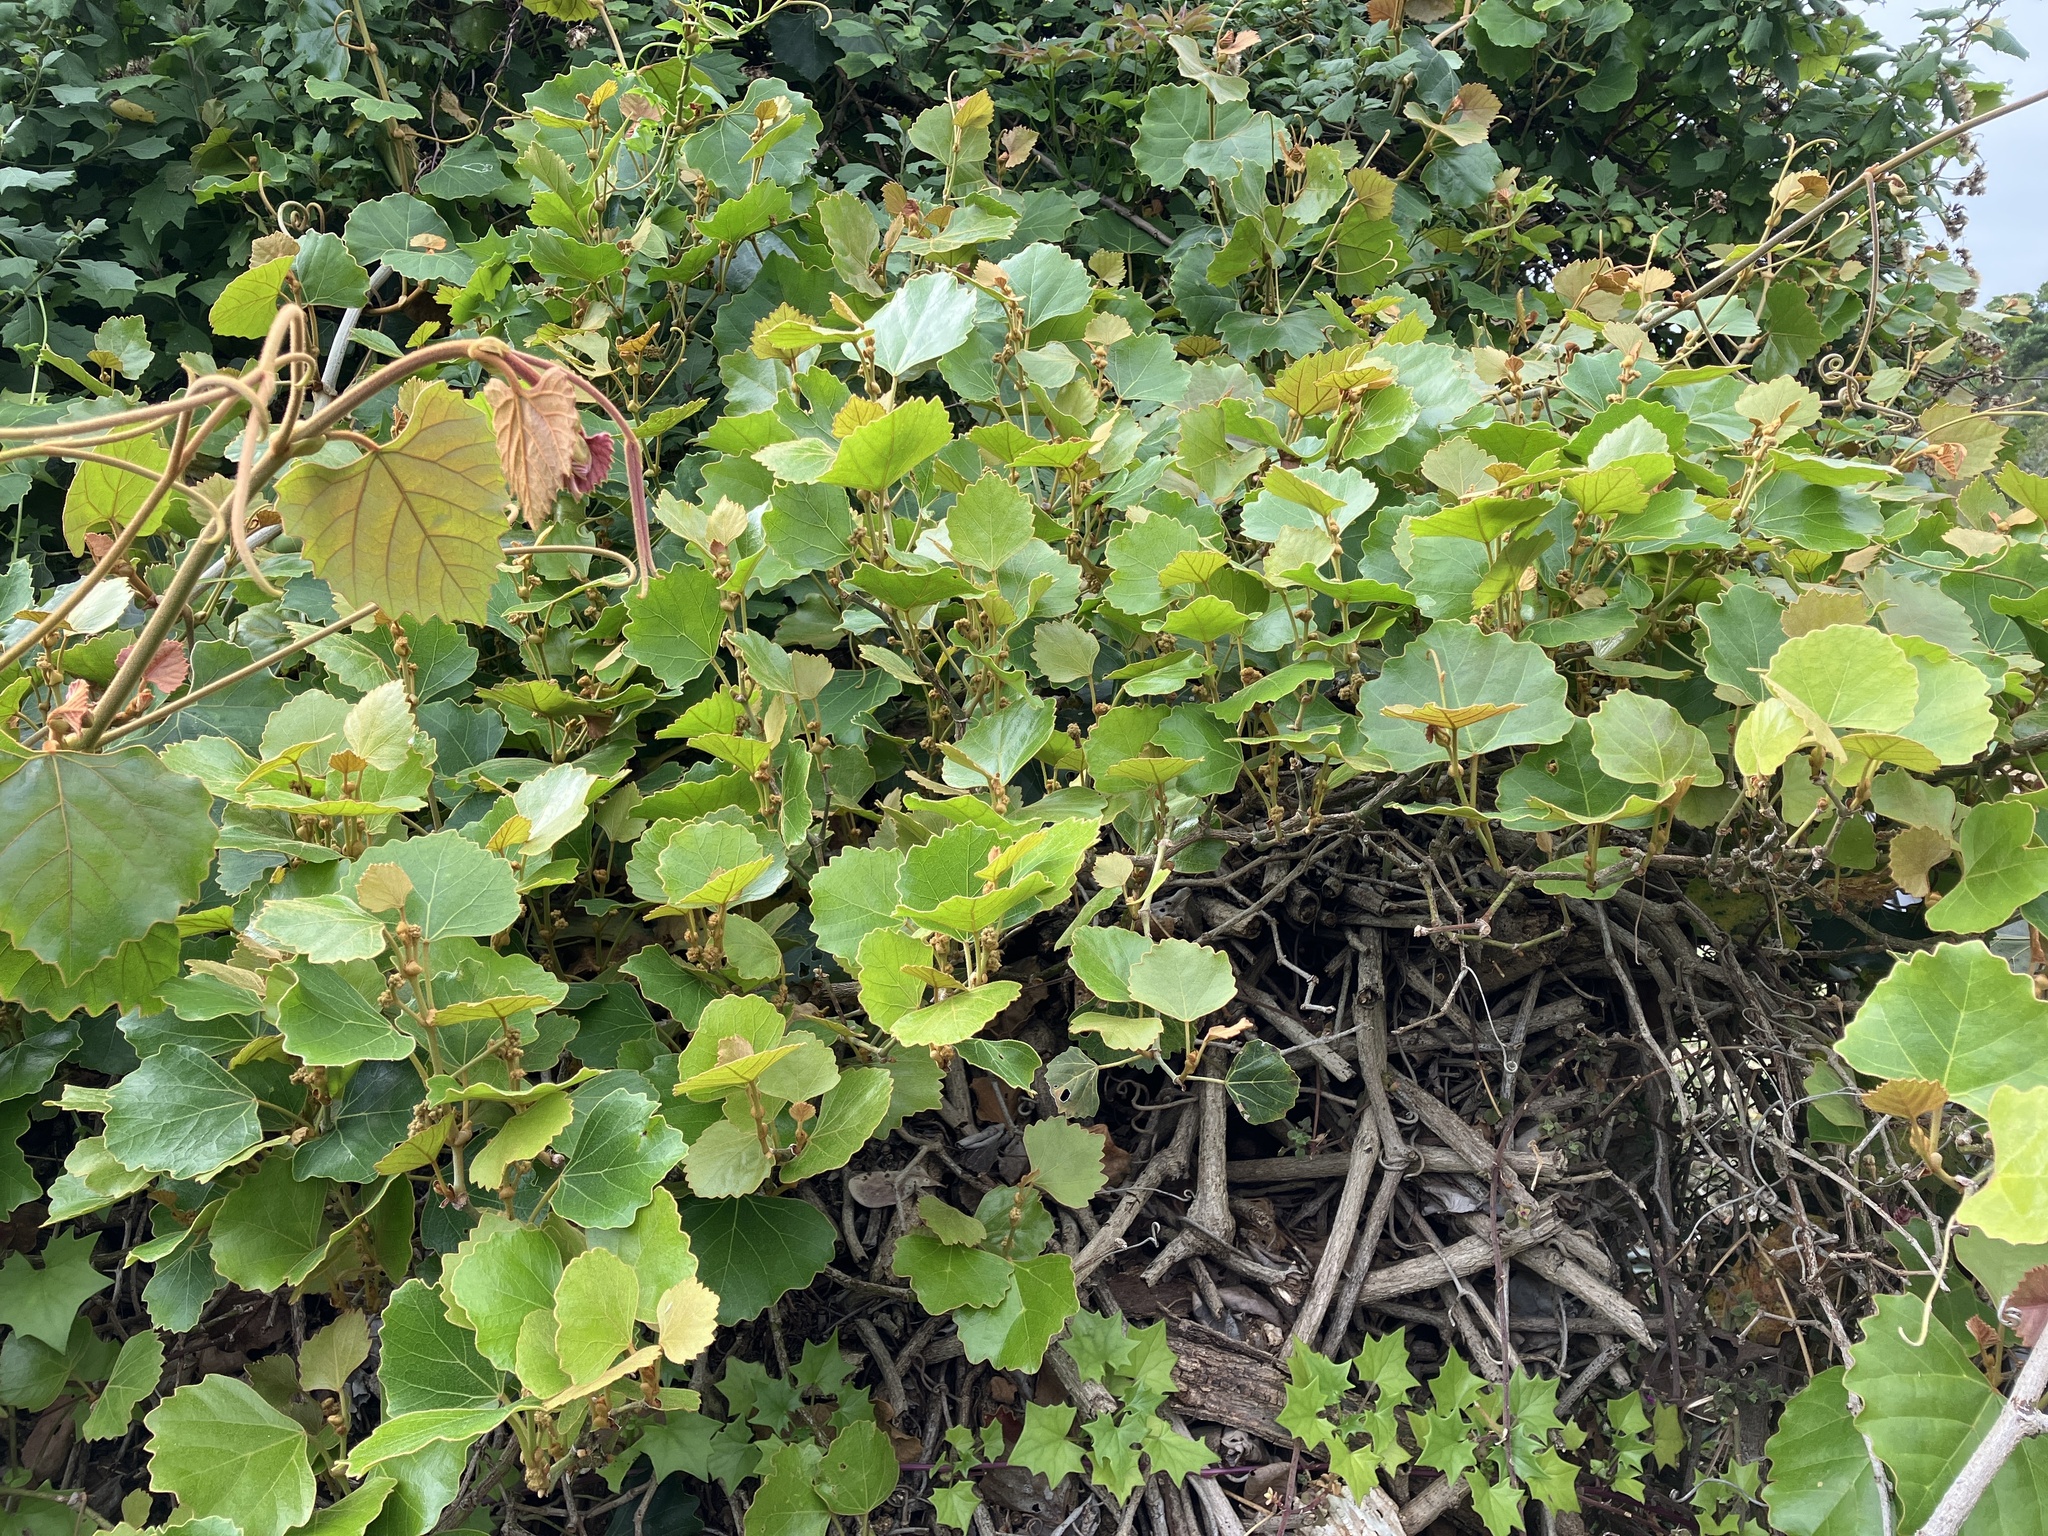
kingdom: Plantae
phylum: Tracheophyta
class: Magnoliopsida
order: Vitales
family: Vitaceae
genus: Rhoicissus
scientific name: Rhoicissus tomentosa
